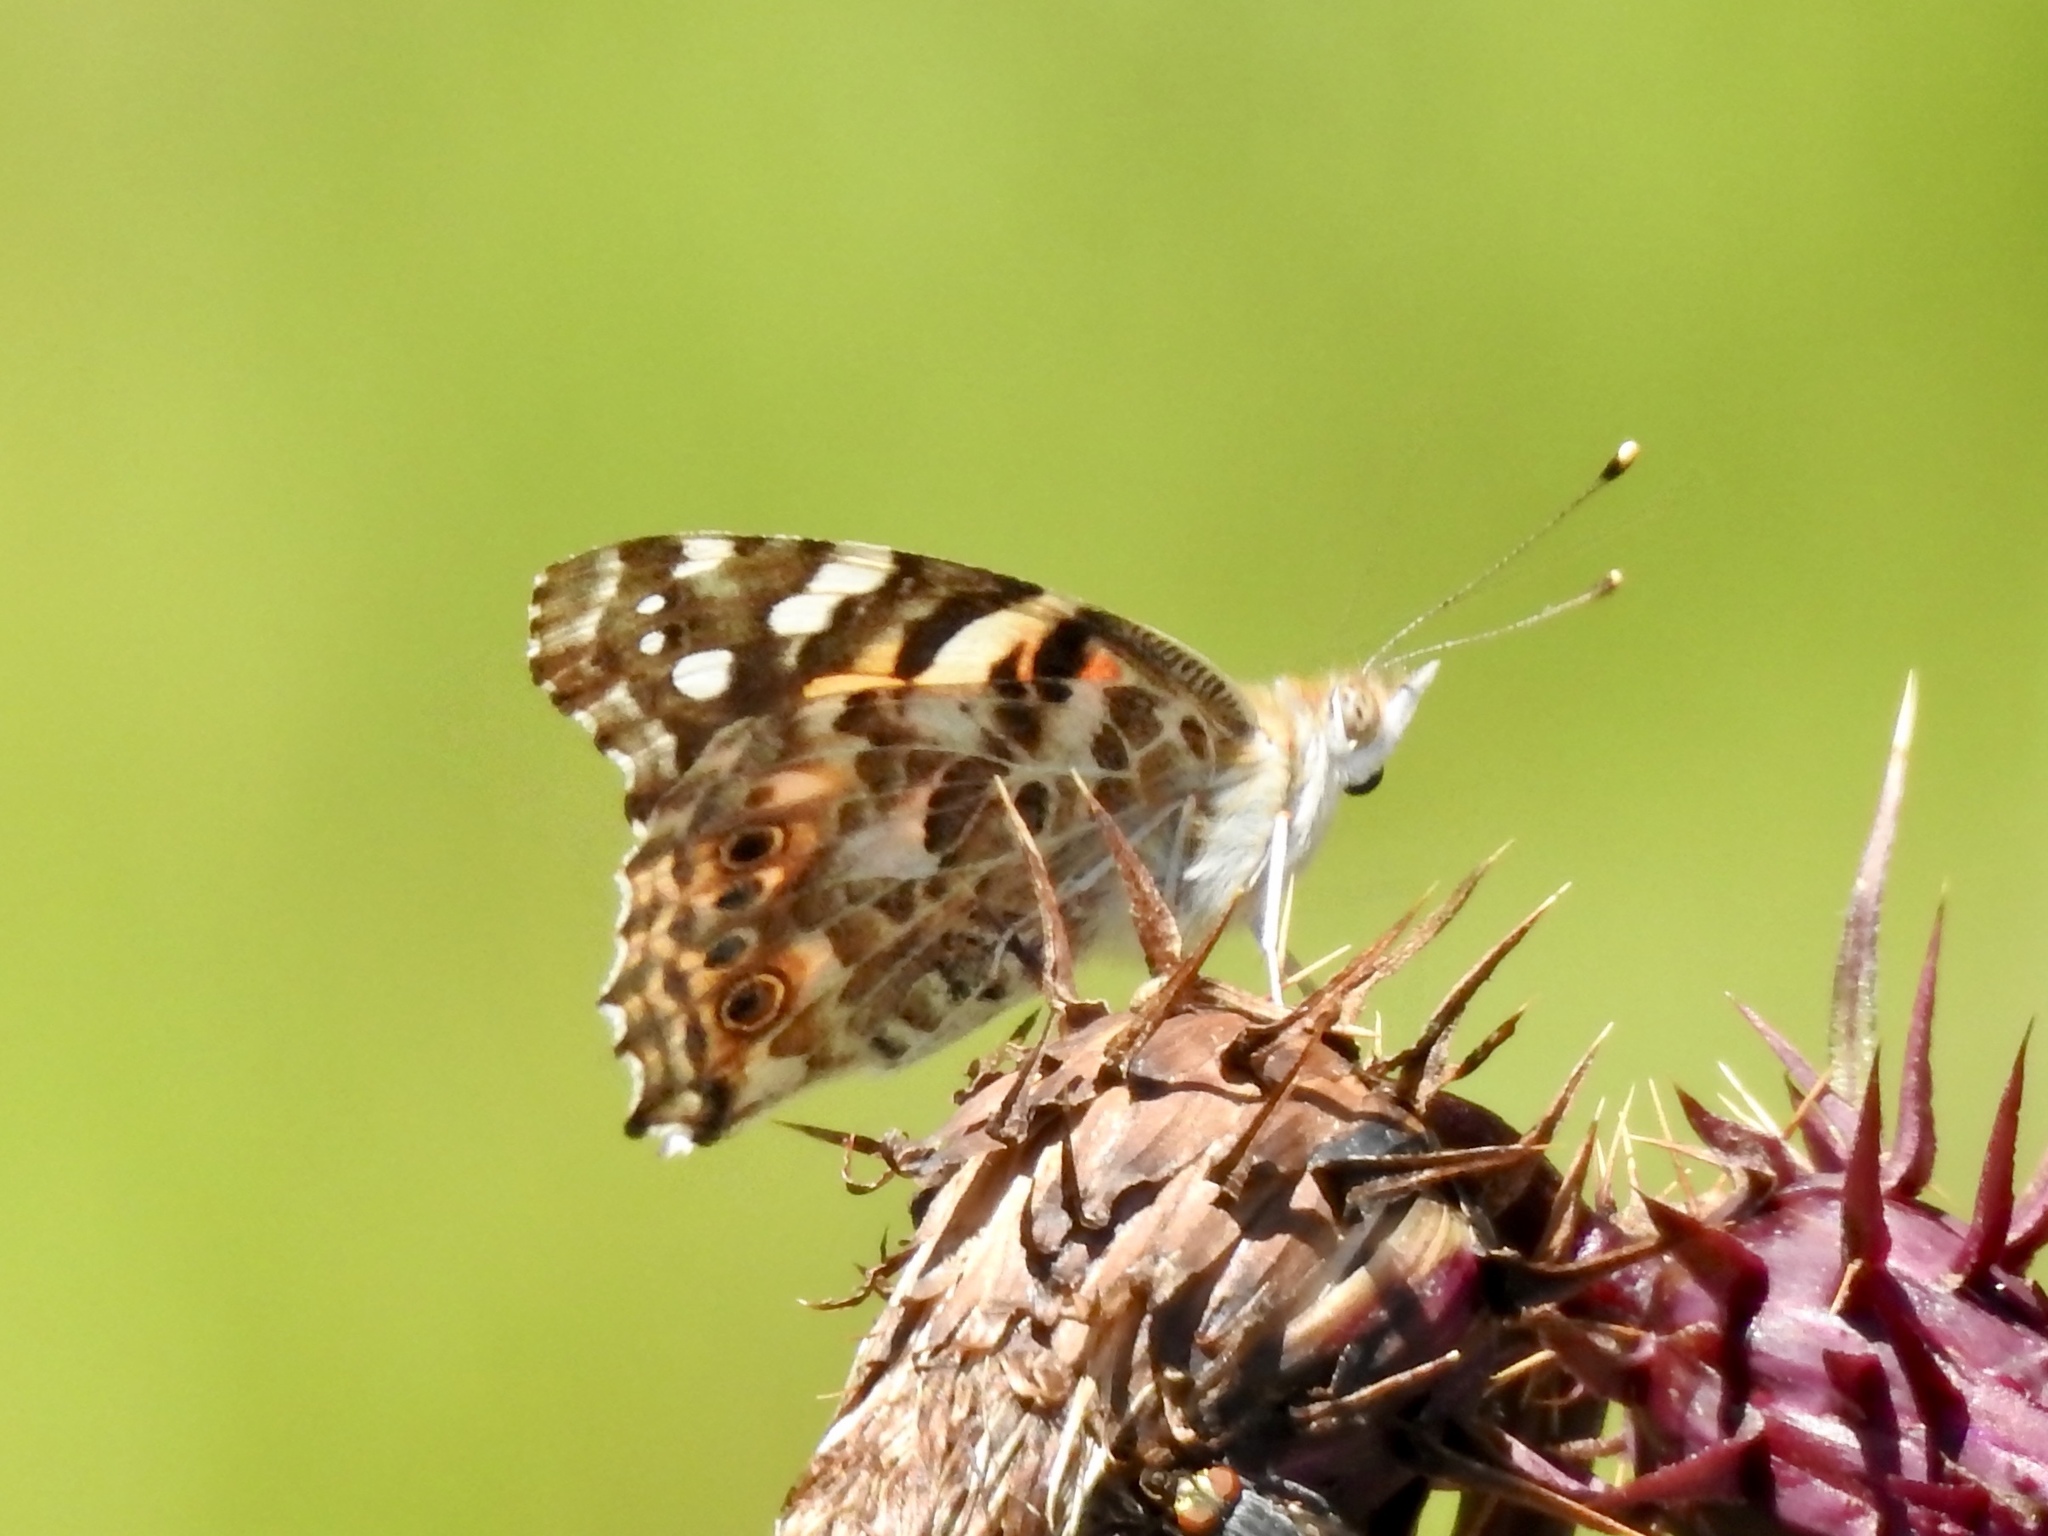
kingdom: Animalia
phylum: Arthropoda
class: Insecta
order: Lepidoptera
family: Nymphalidae
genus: Vanessa
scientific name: Vanessa cardui
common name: Painted lady
